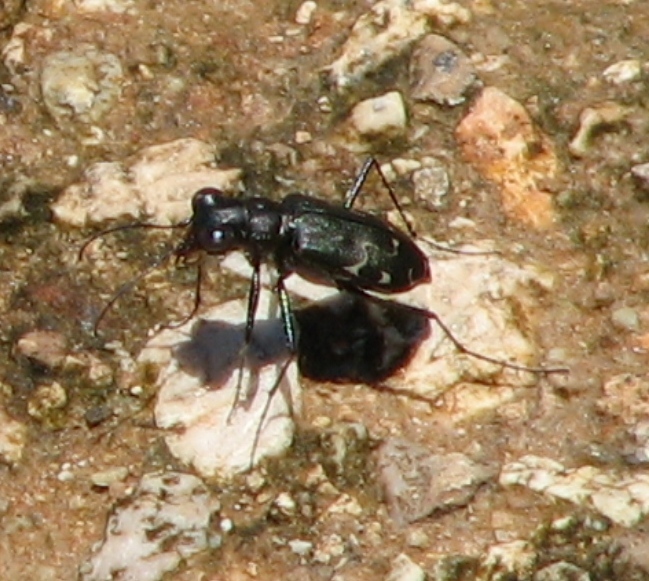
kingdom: Animalia
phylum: Arthropoda
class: Insecta
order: Coleoptera
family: Carabidae
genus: Cicindela
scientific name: Cicindela trifasciata
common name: Mudflat tiger beetle
